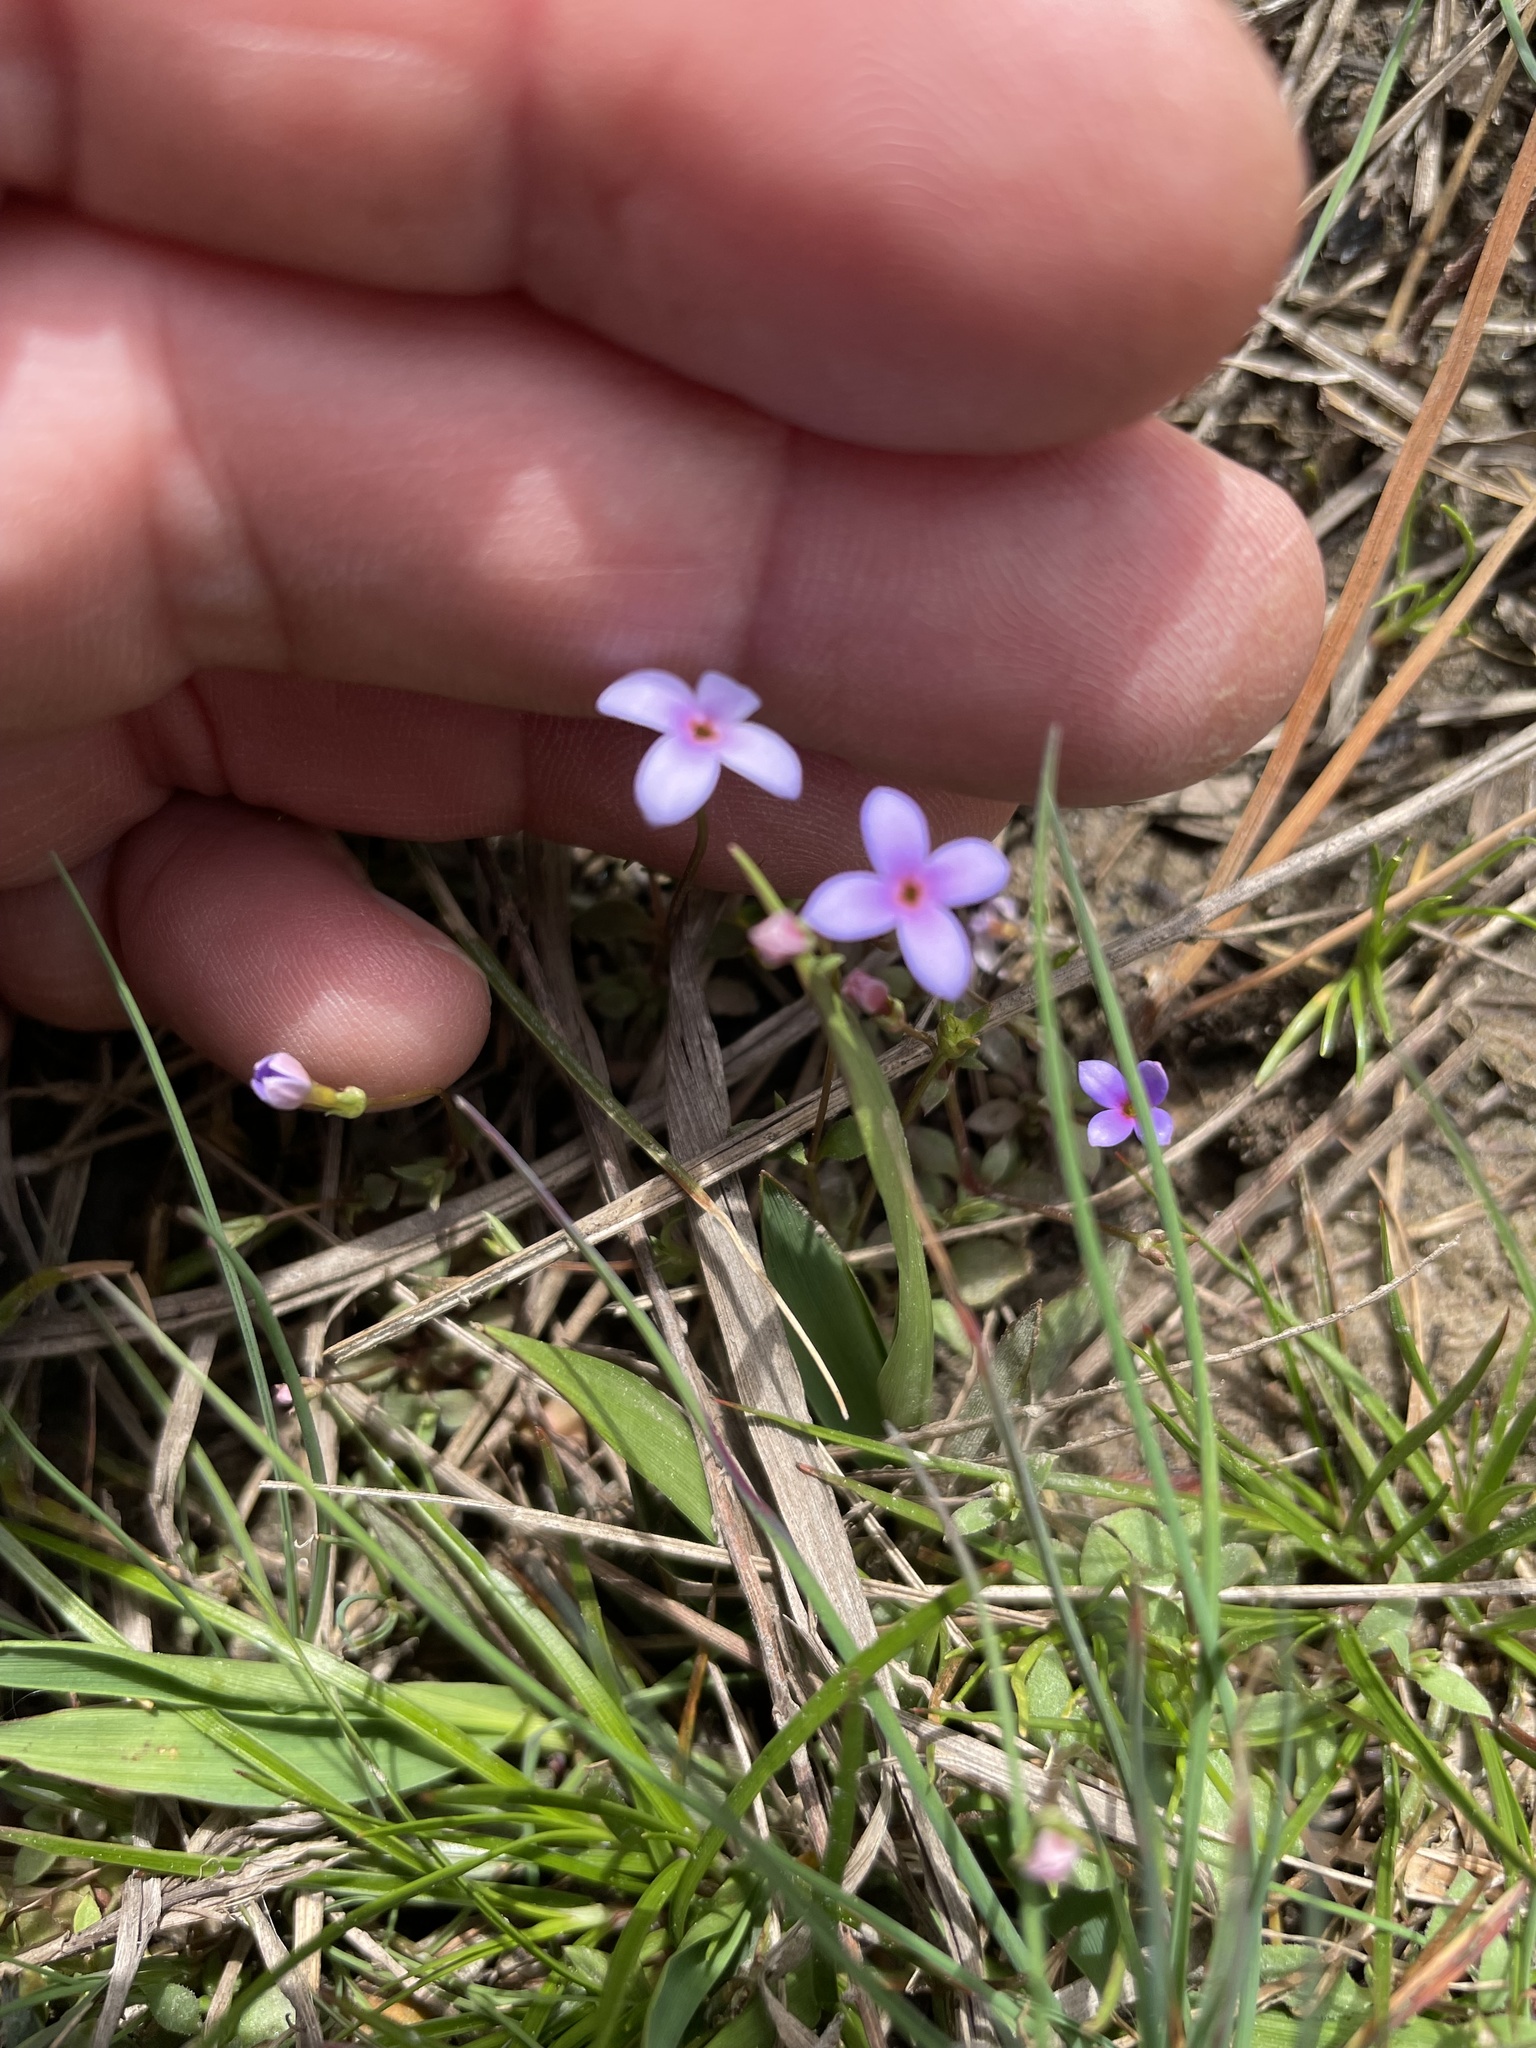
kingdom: Plantae
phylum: Tracheophyta
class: Magnoliopsida
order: Gentianales
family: Rubiaceae
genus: Houstonia
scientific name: Houstonia pusilla
